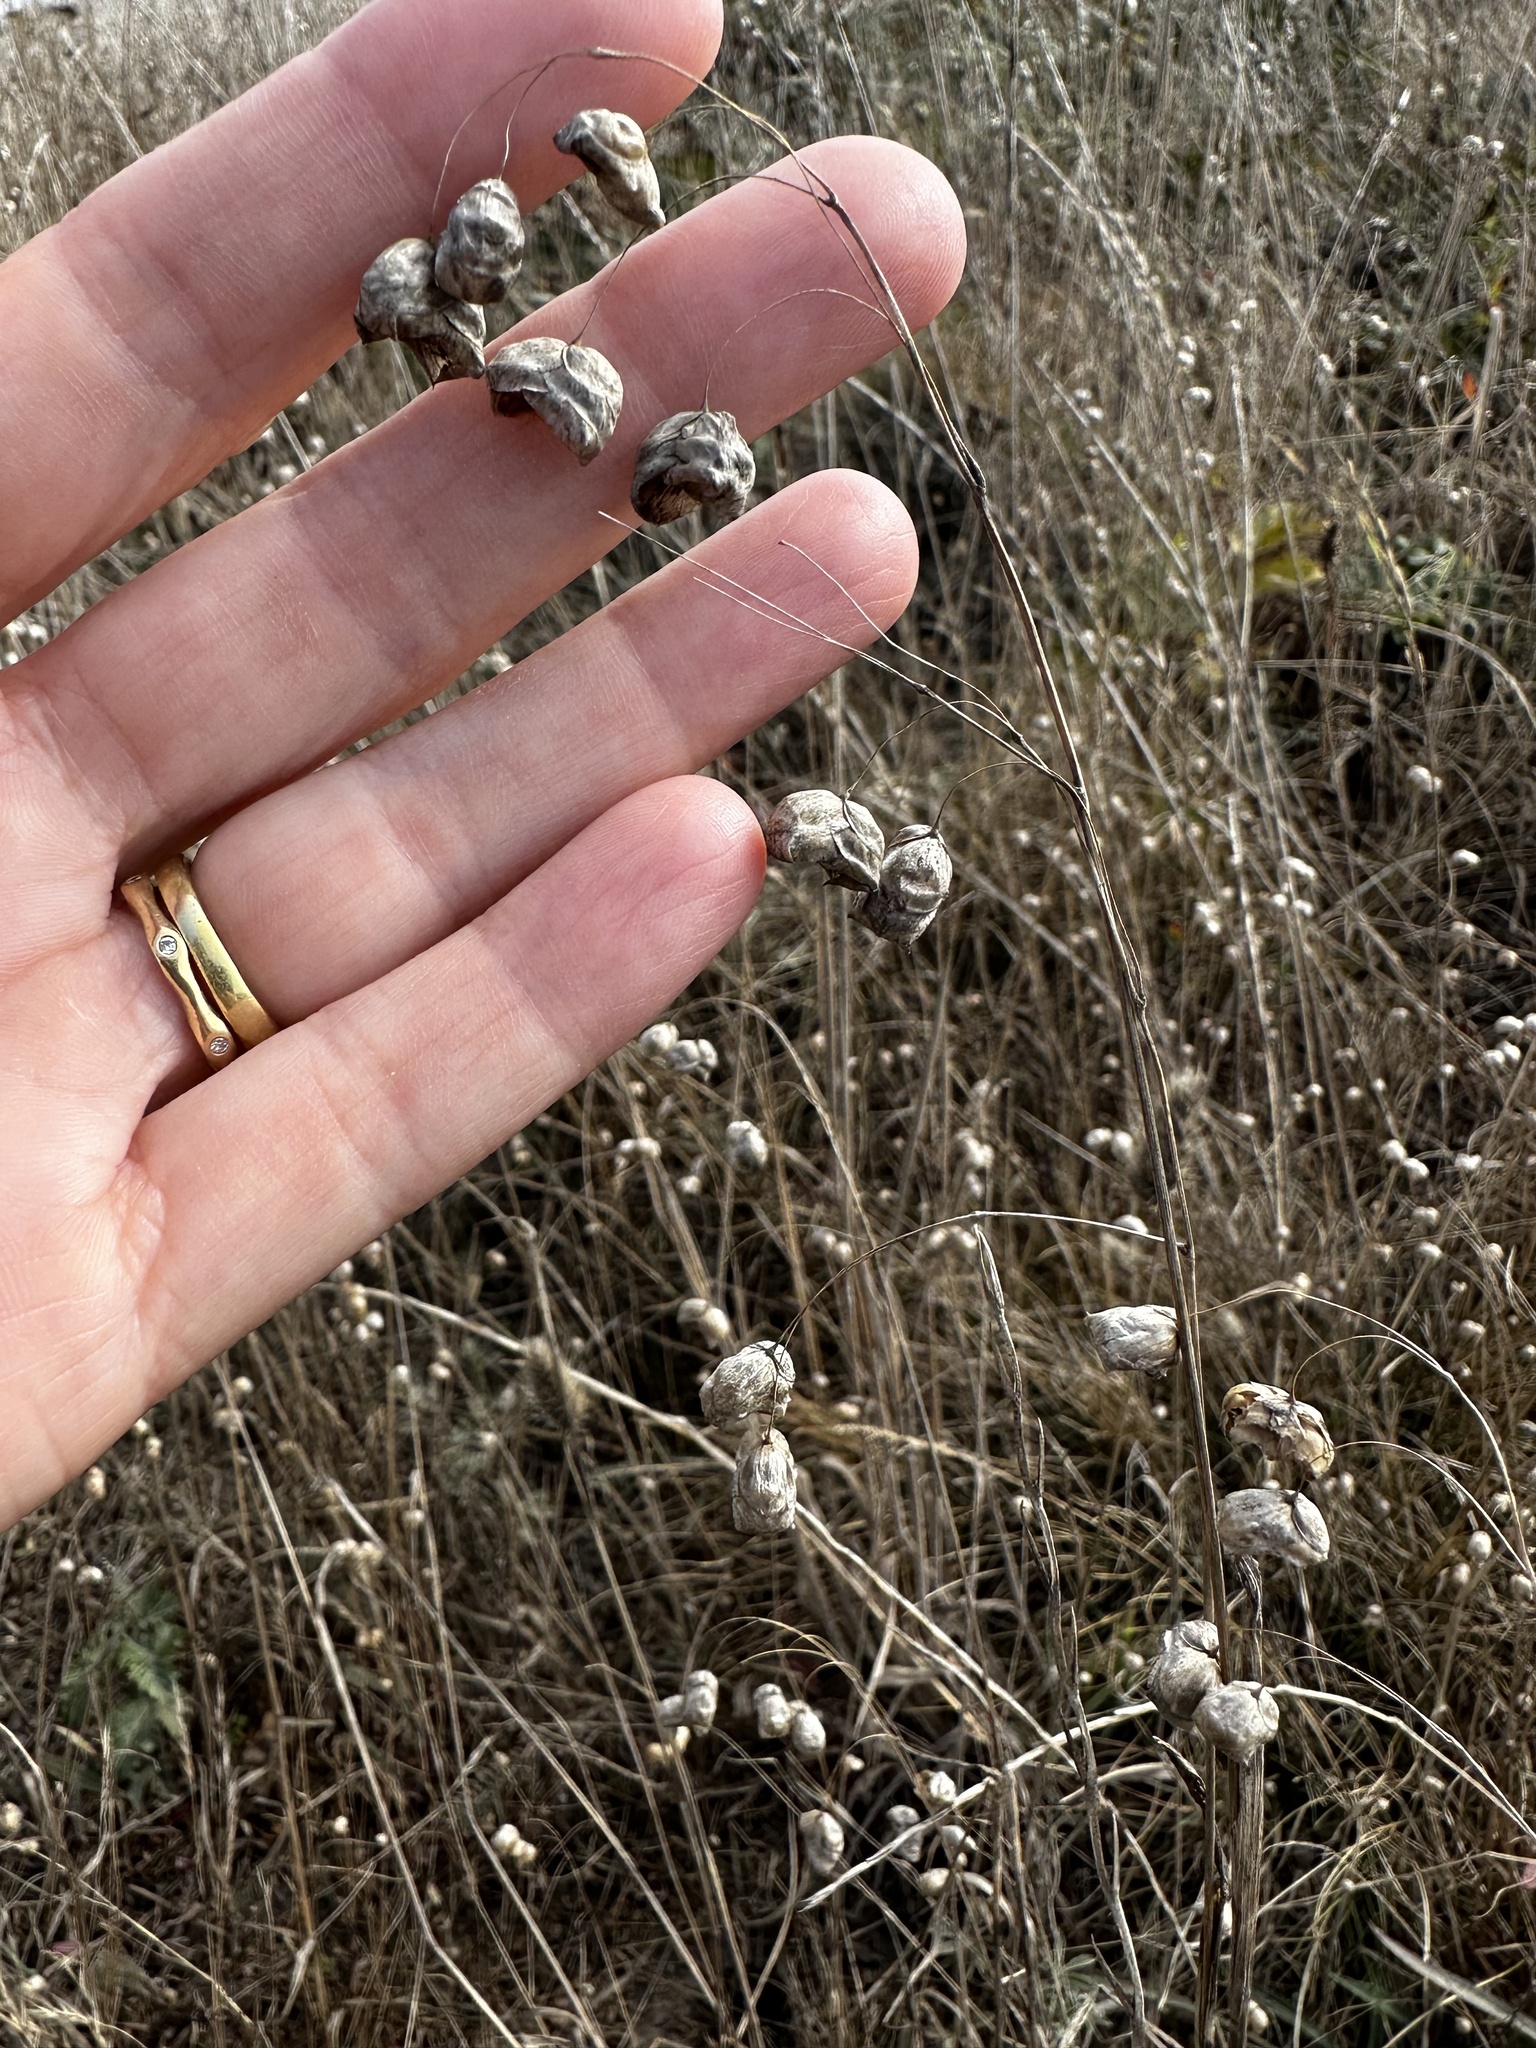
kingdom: Plantae
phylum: Tracheophyta
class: Liliopsida
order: Poales
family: Poaceae
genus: Briza
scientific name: Briza maxima
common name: Big quakinggrass
